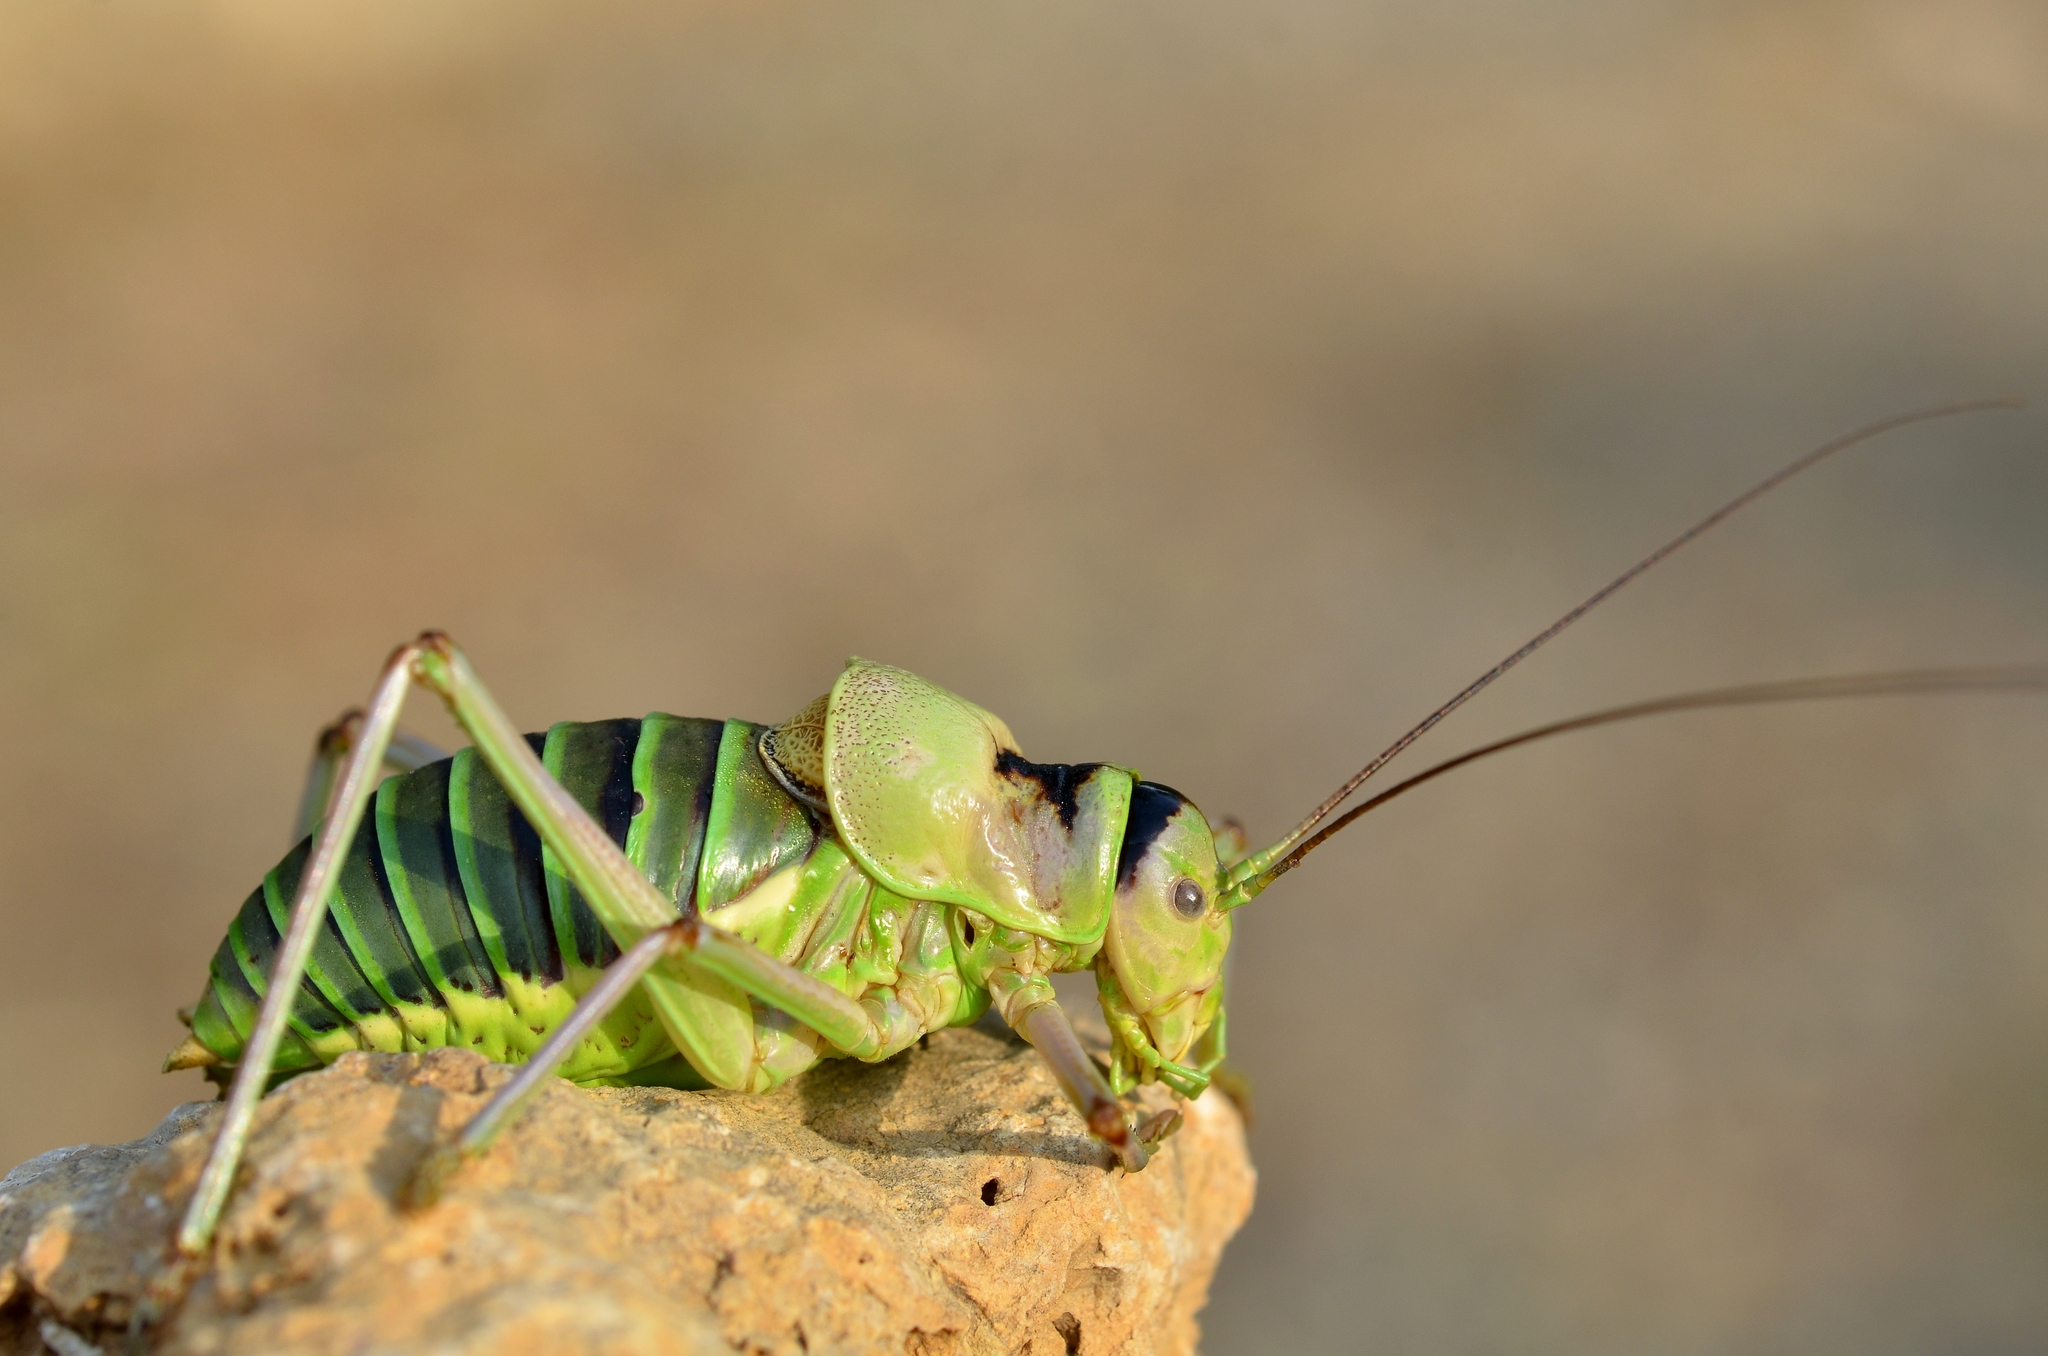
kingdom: Animalia
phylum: Arthropoda
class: Insecta
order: Orthoptera
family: Tettigoniidae
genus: Ephippiger
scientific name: Ephippiger diurnus
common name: Western saddle bush-cricket
